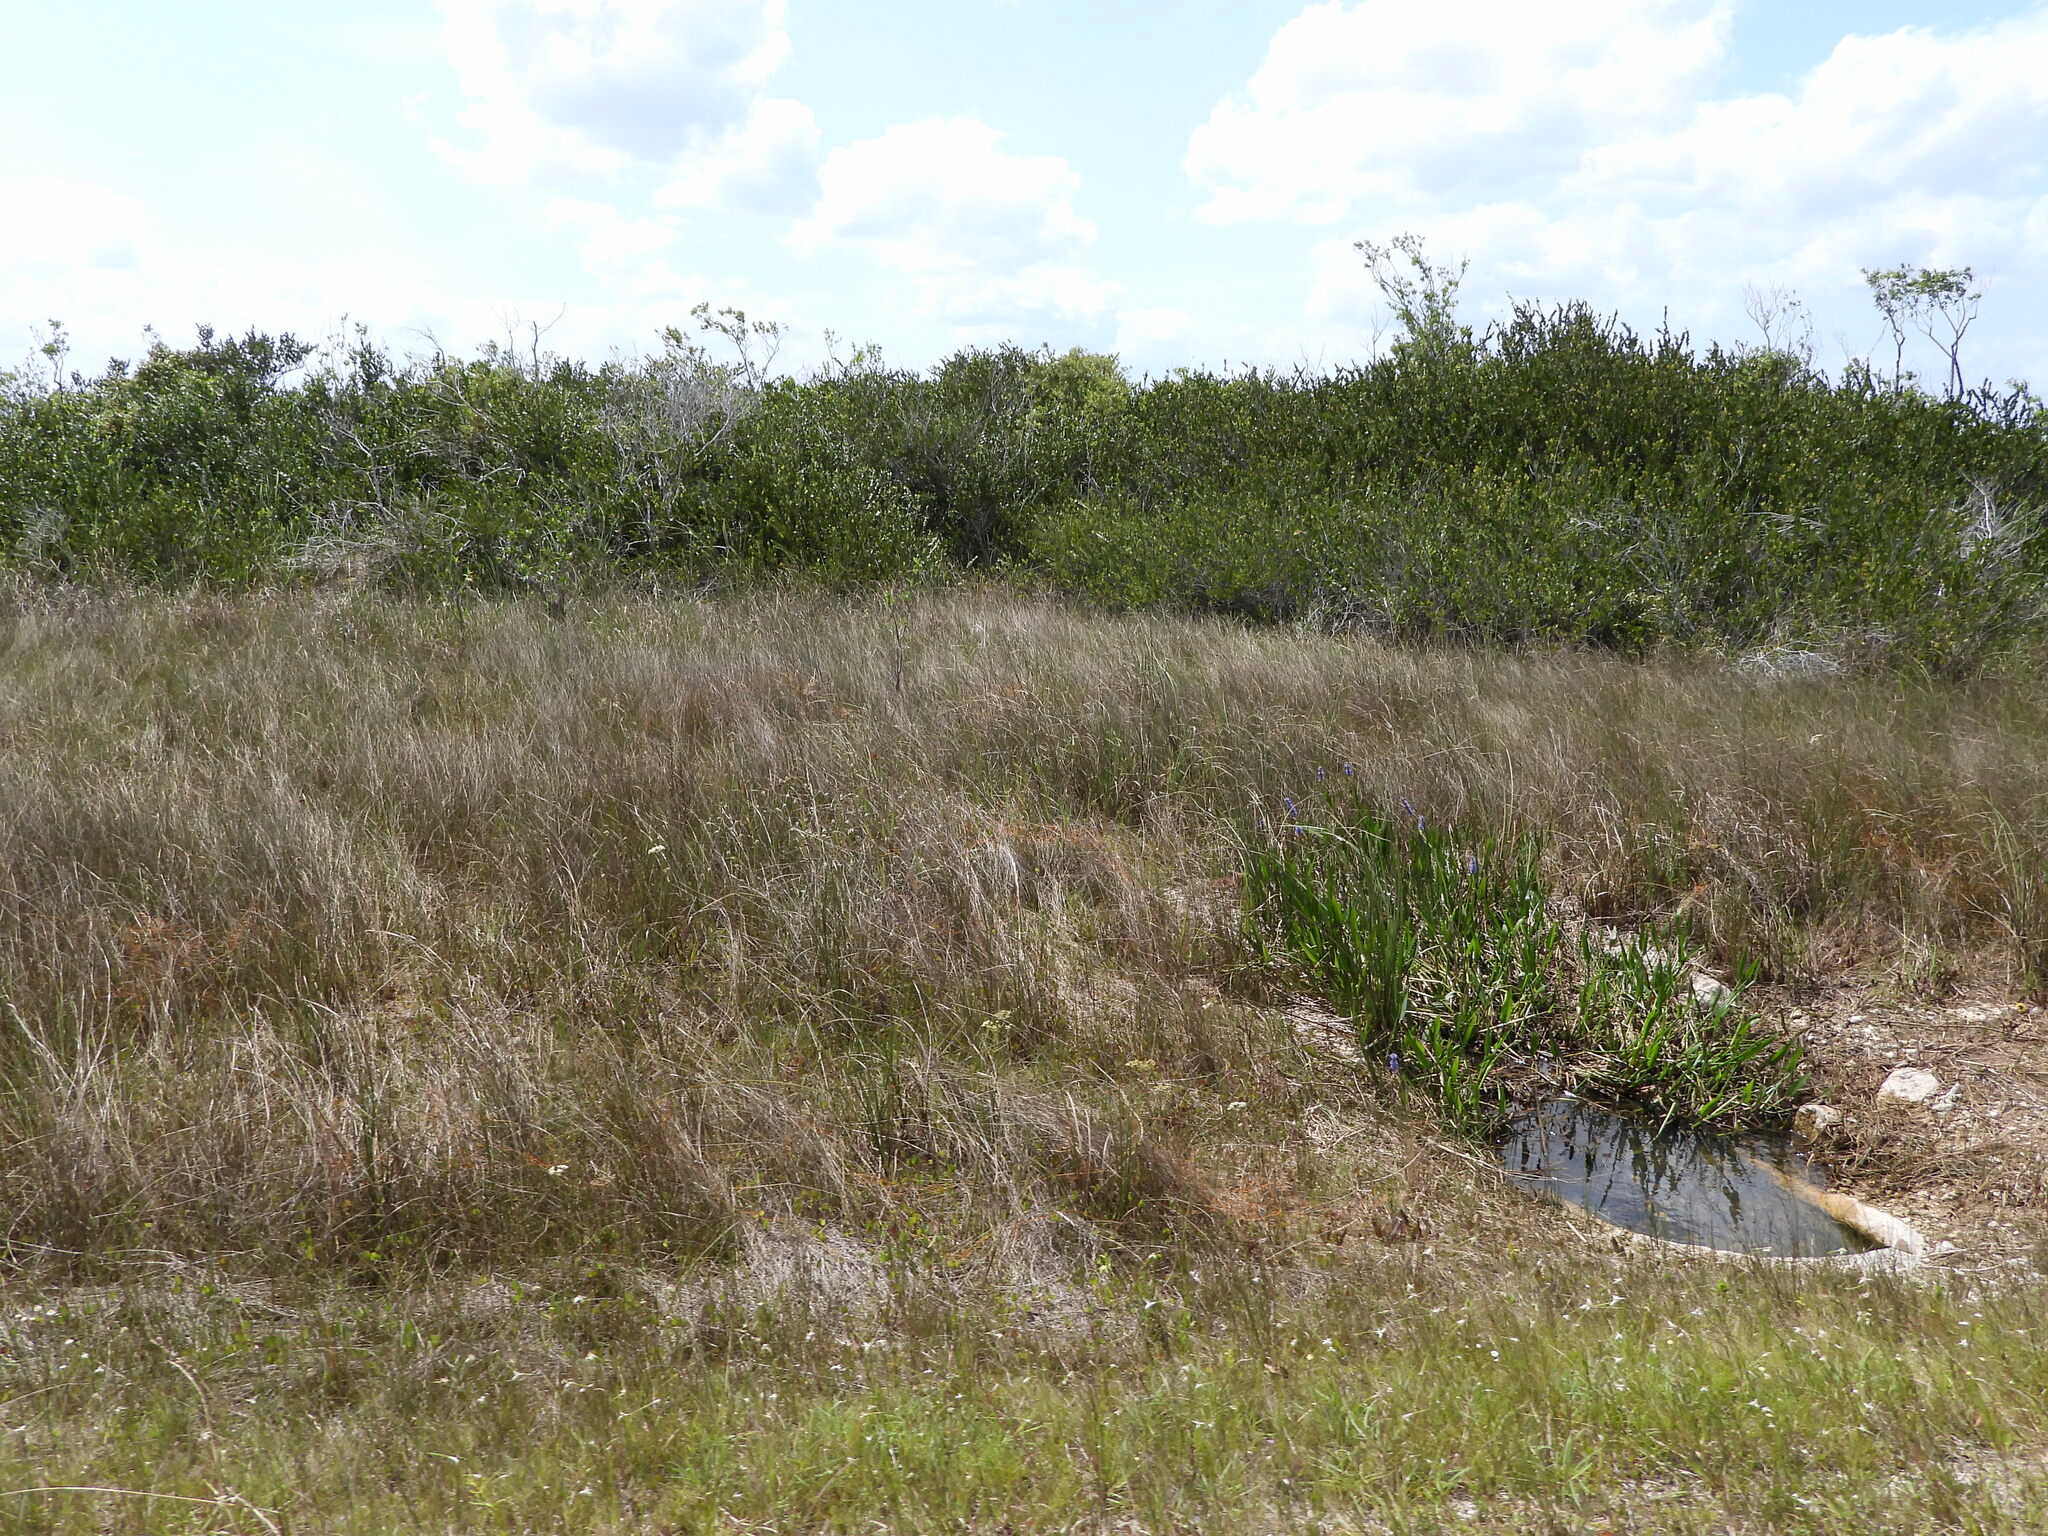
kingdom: Plantae
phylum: Tracheophyta
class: Liliopsida
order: Commelinales
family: Pontederiaceae
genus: Pontederia
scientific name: Pontederia cordata
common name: Pickerelweed
